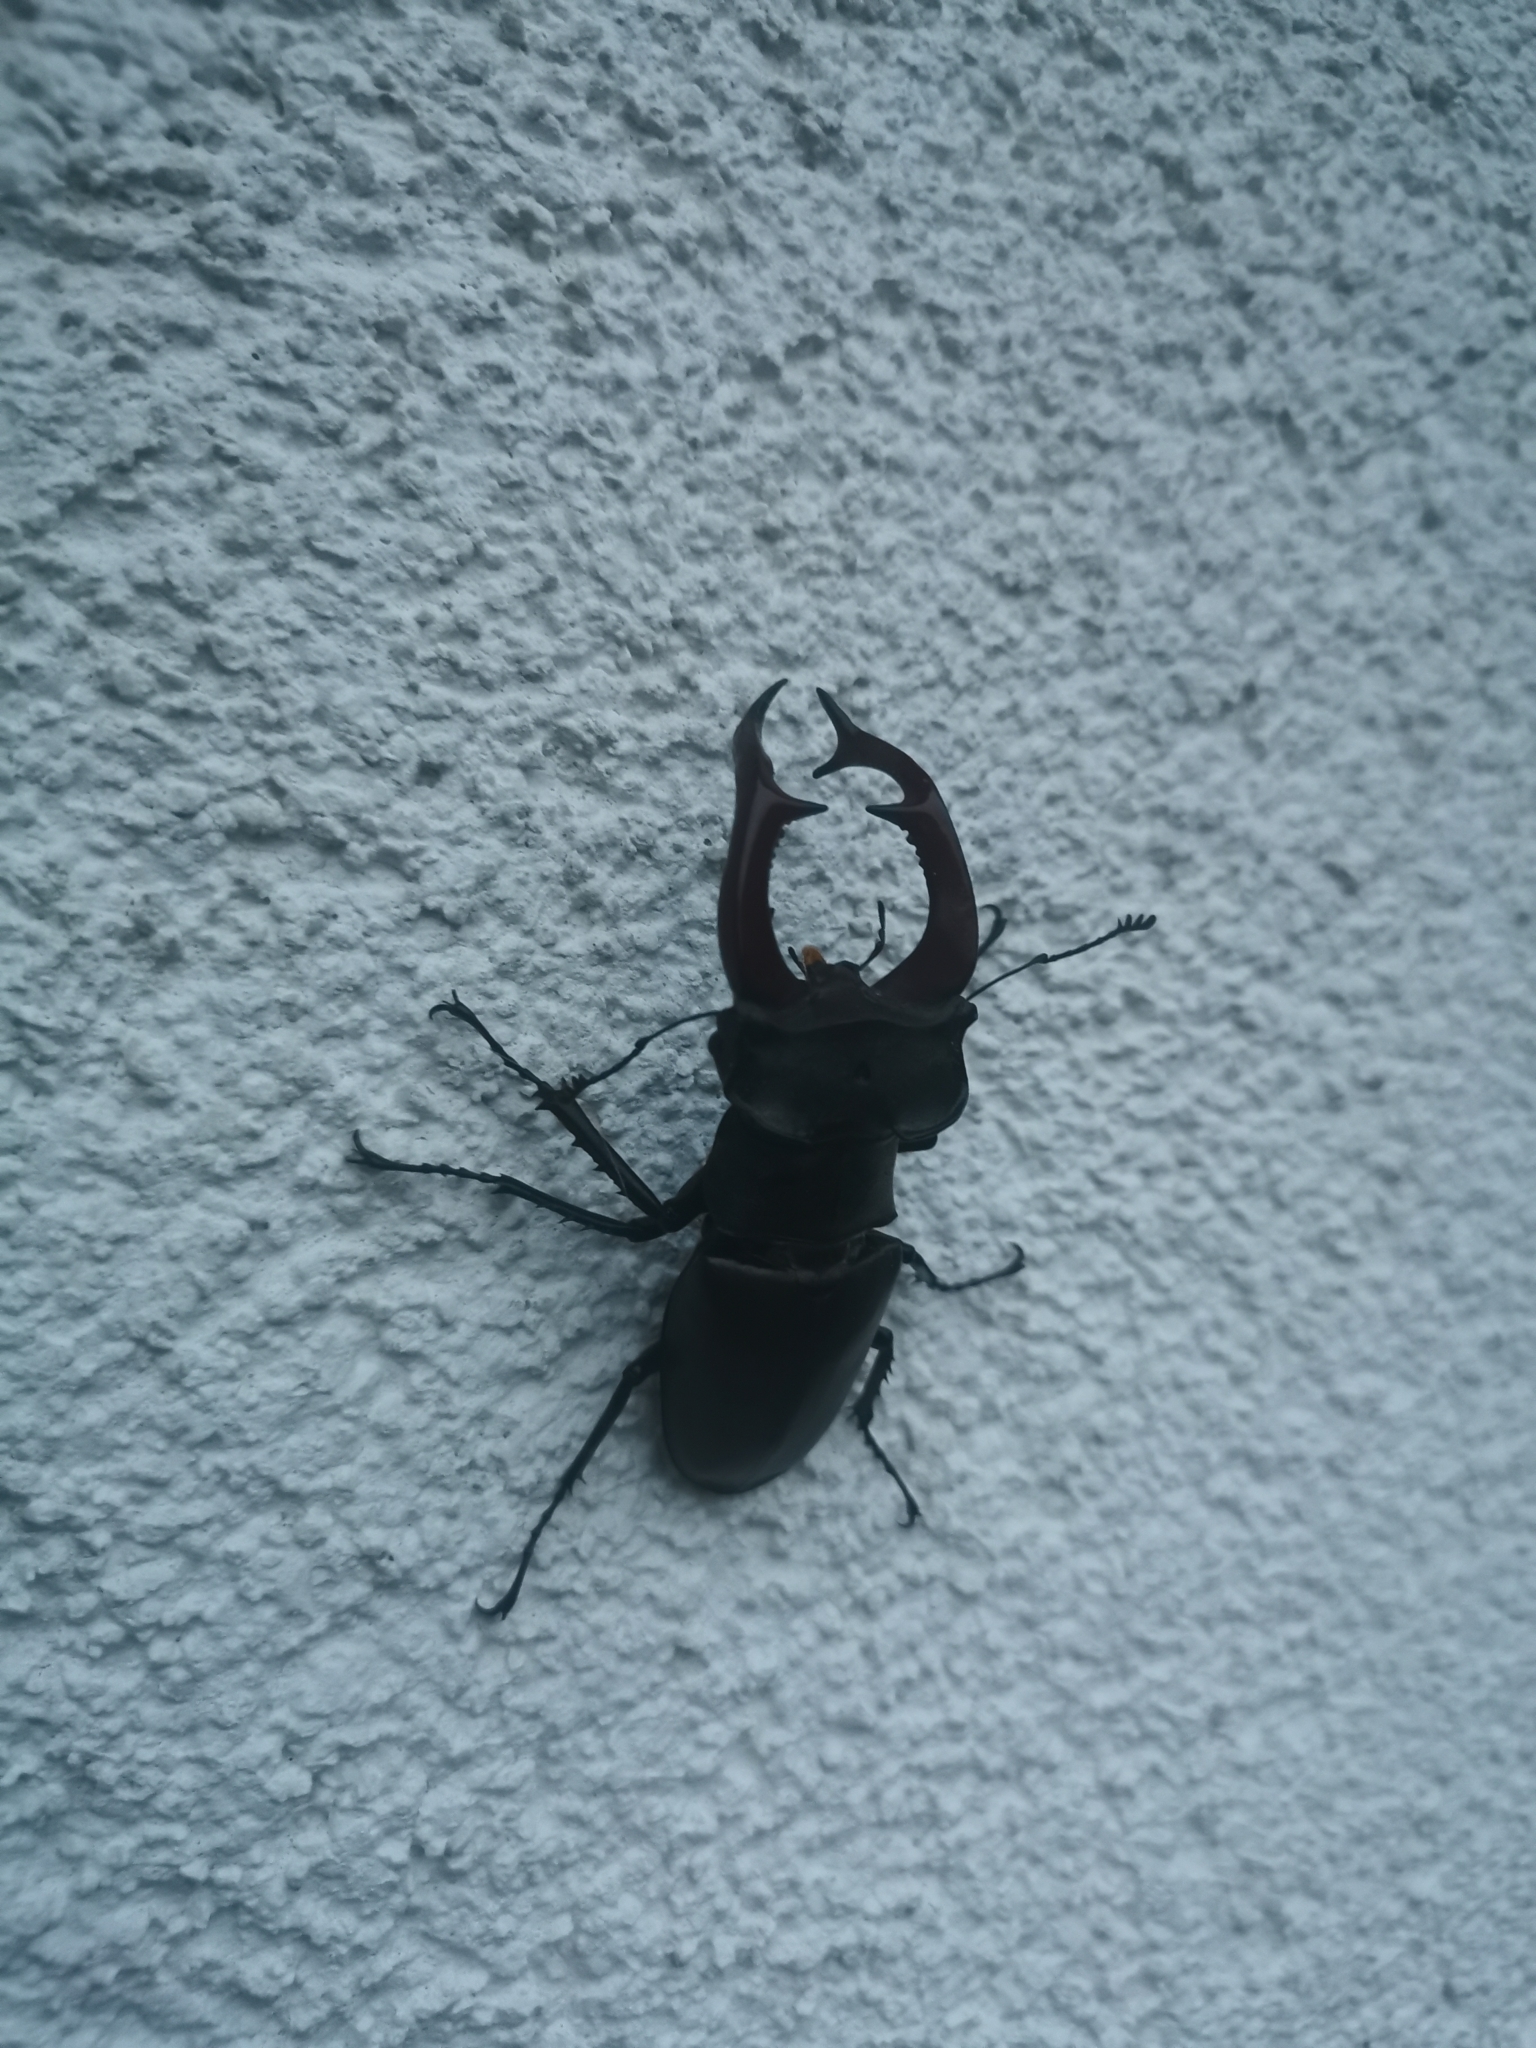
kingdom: Animalia
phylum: Arthropoda
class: Insecta
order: Coleoptera
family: Lucanidae
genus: Lucanus
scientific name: Lucanus cervus
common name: Stag beetle
